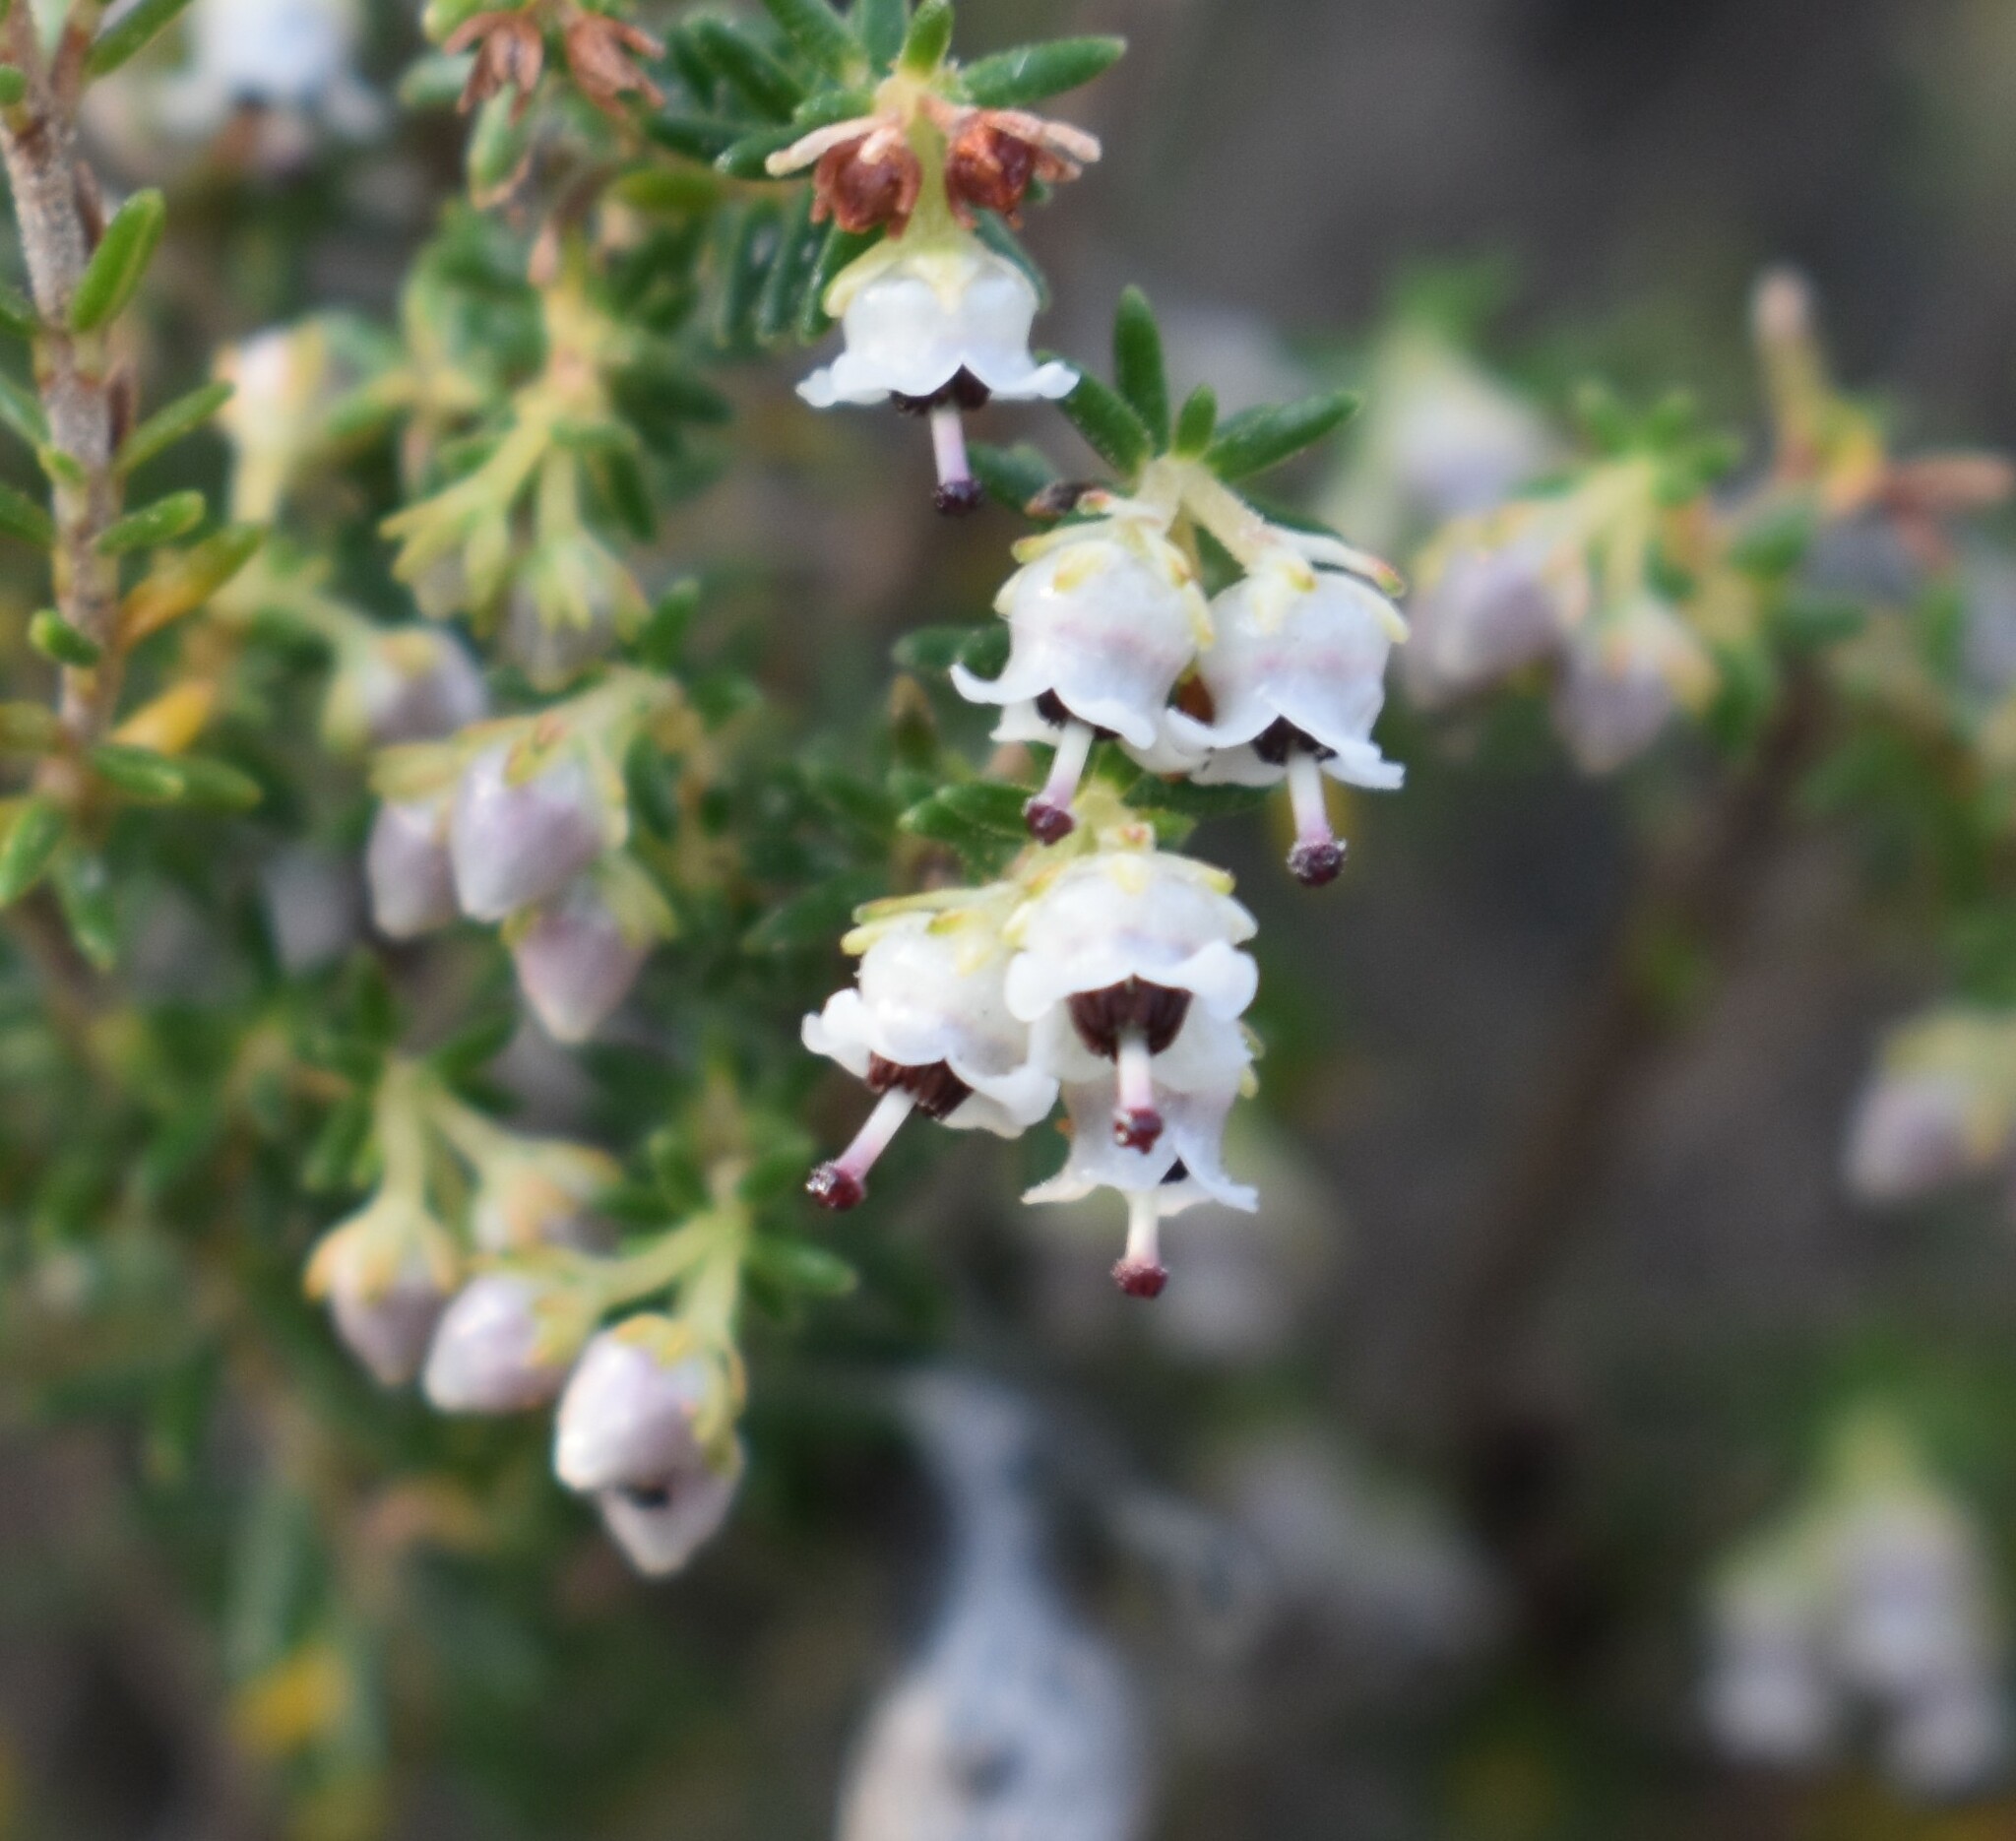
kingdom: Plantae
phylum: Tracheophyta
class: Magnoliopsida
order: Ericales
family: Ericaceae
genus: Erica
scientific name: Erica zwartbergensis
